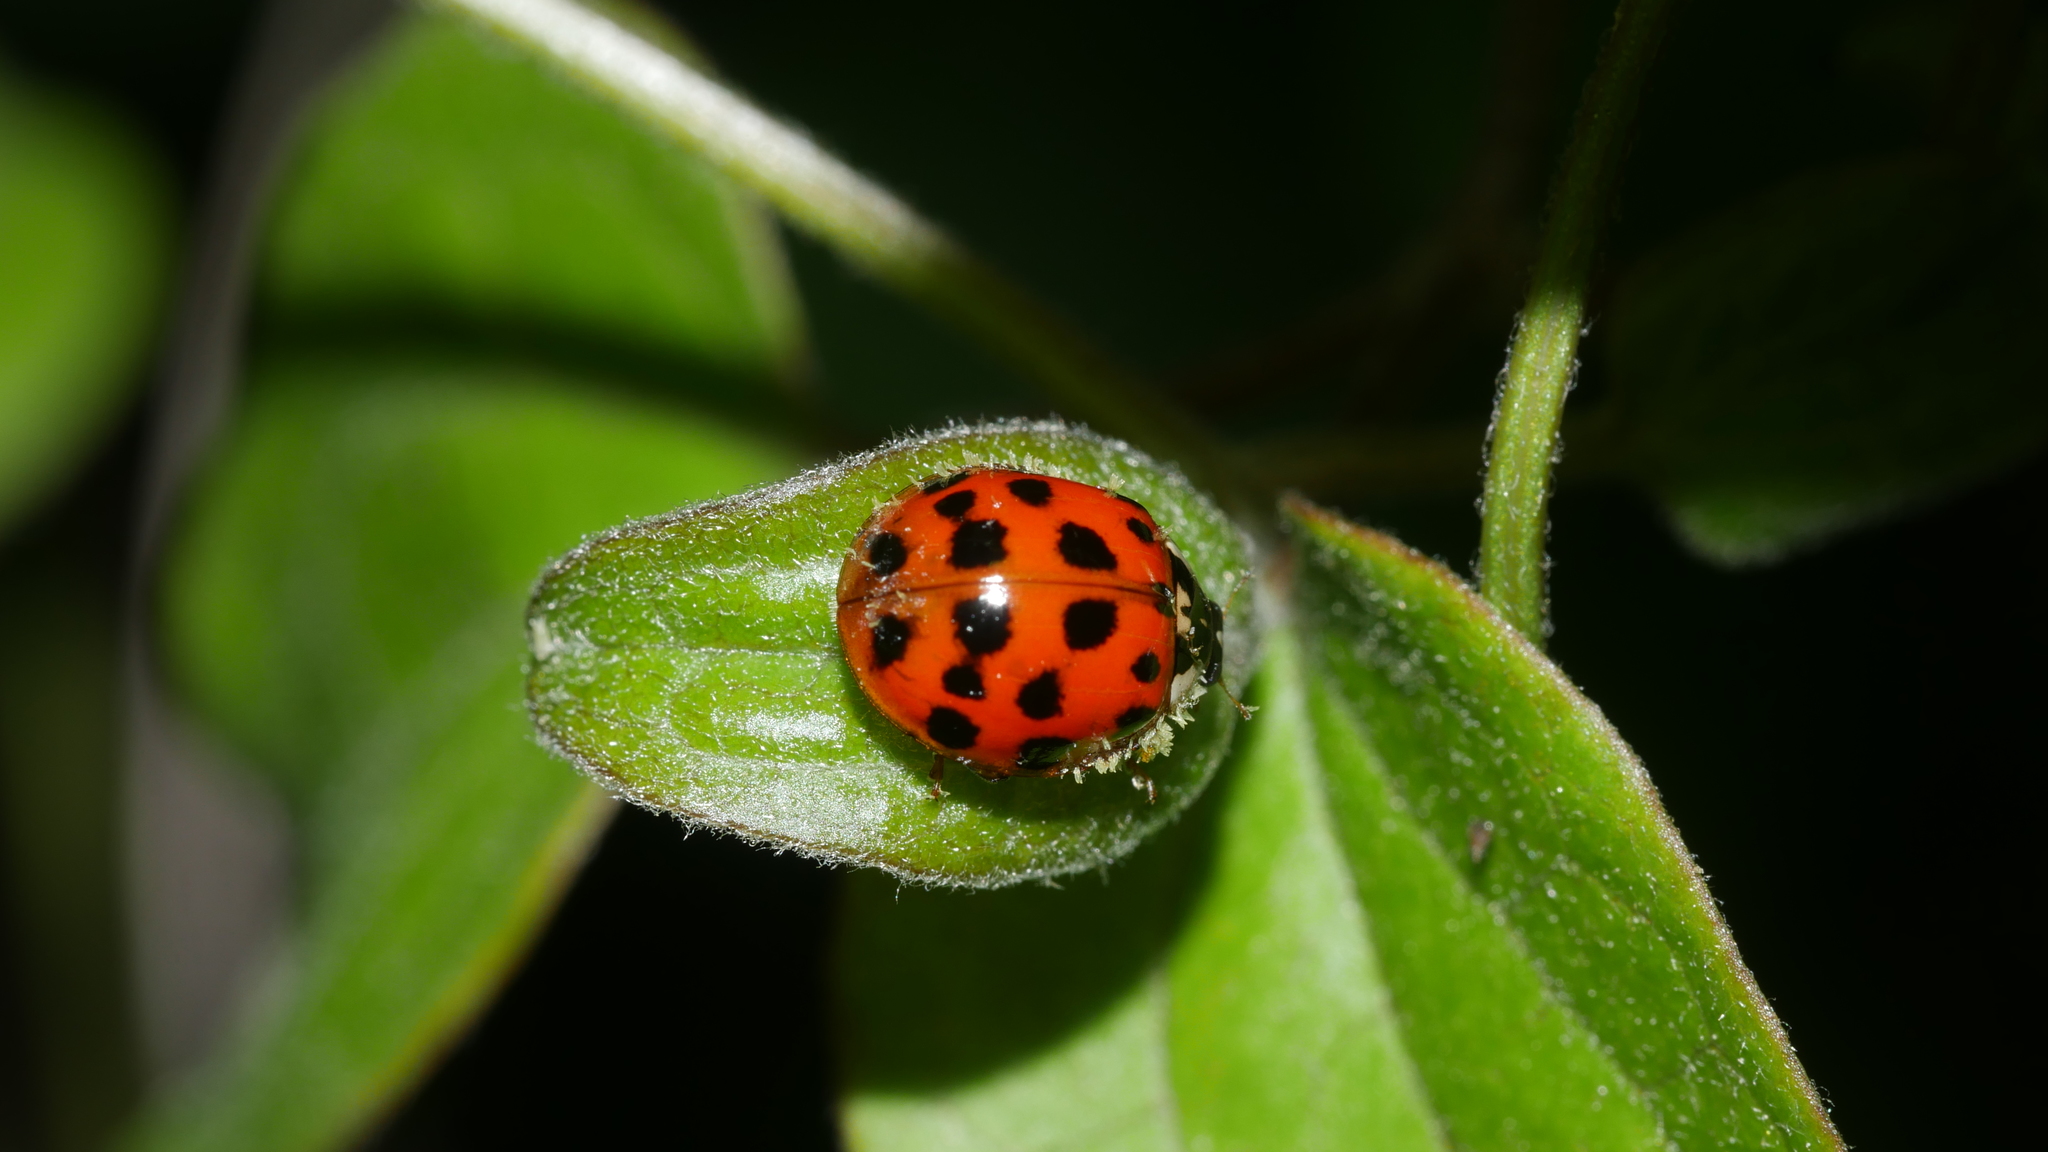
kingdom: Animalia
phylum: Arthropoda
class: Insecta
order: Coleoptera
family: Coccinellidae
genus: Harmonia
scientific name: Harmonia axyridis
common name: Harlequin ladybird
